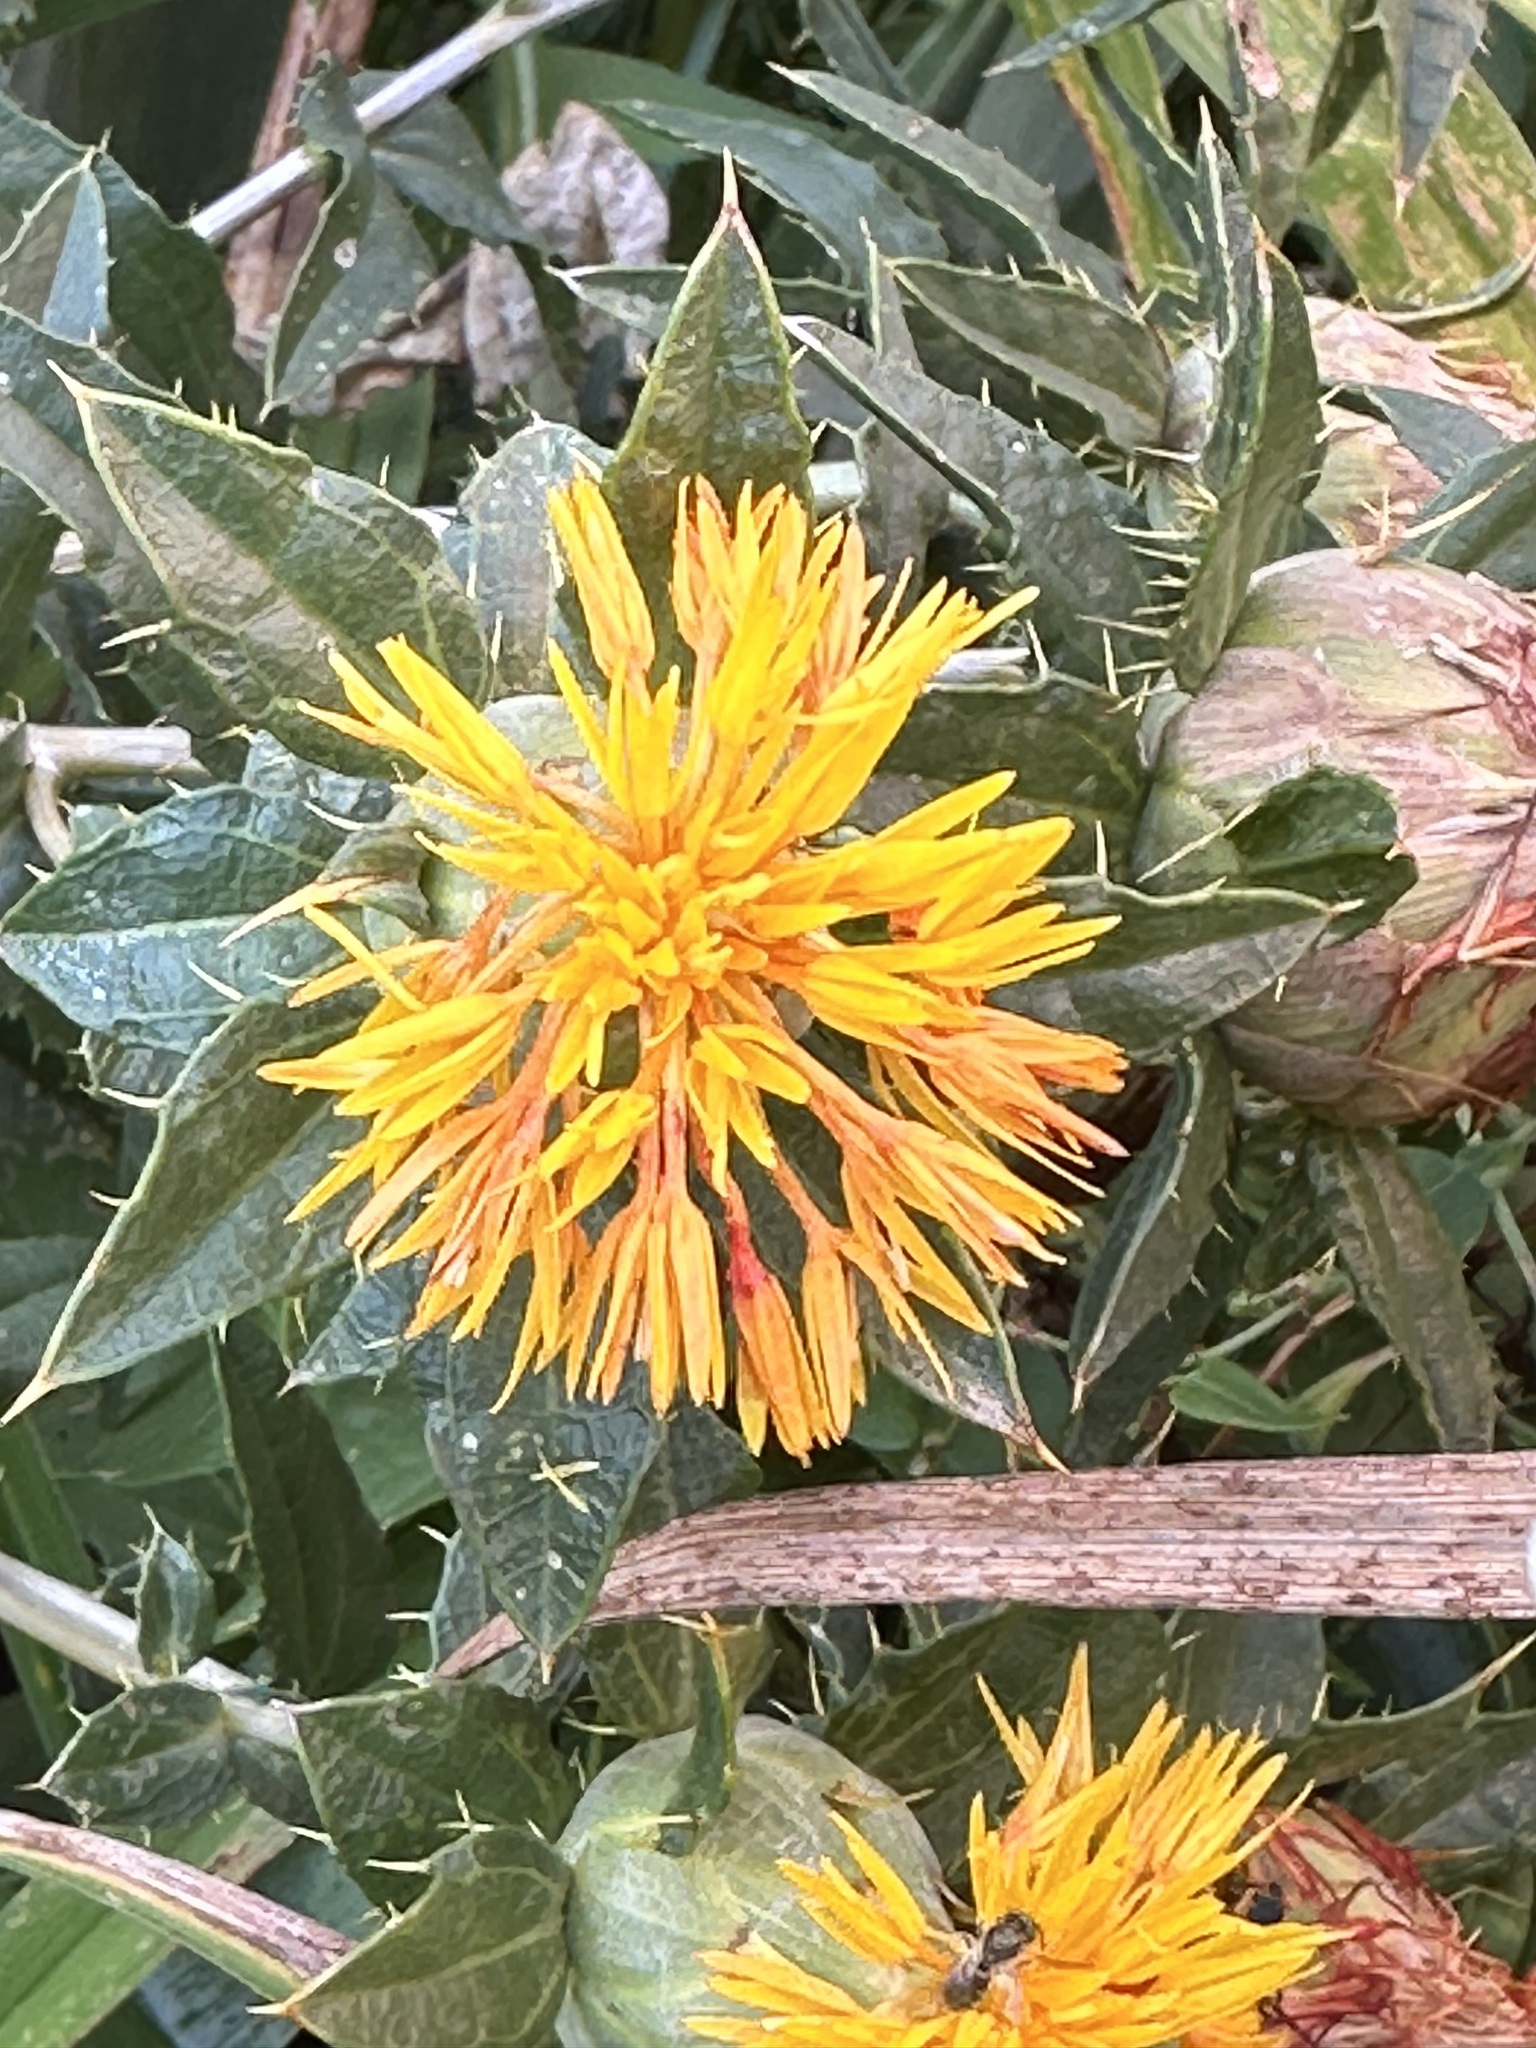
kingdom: Plantae
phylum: Tracheophyta
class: Magnoliopsida
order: Asterales
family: Asteraceae
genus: Carthamus
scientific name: Carthamus tinctorius
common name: Safflower
